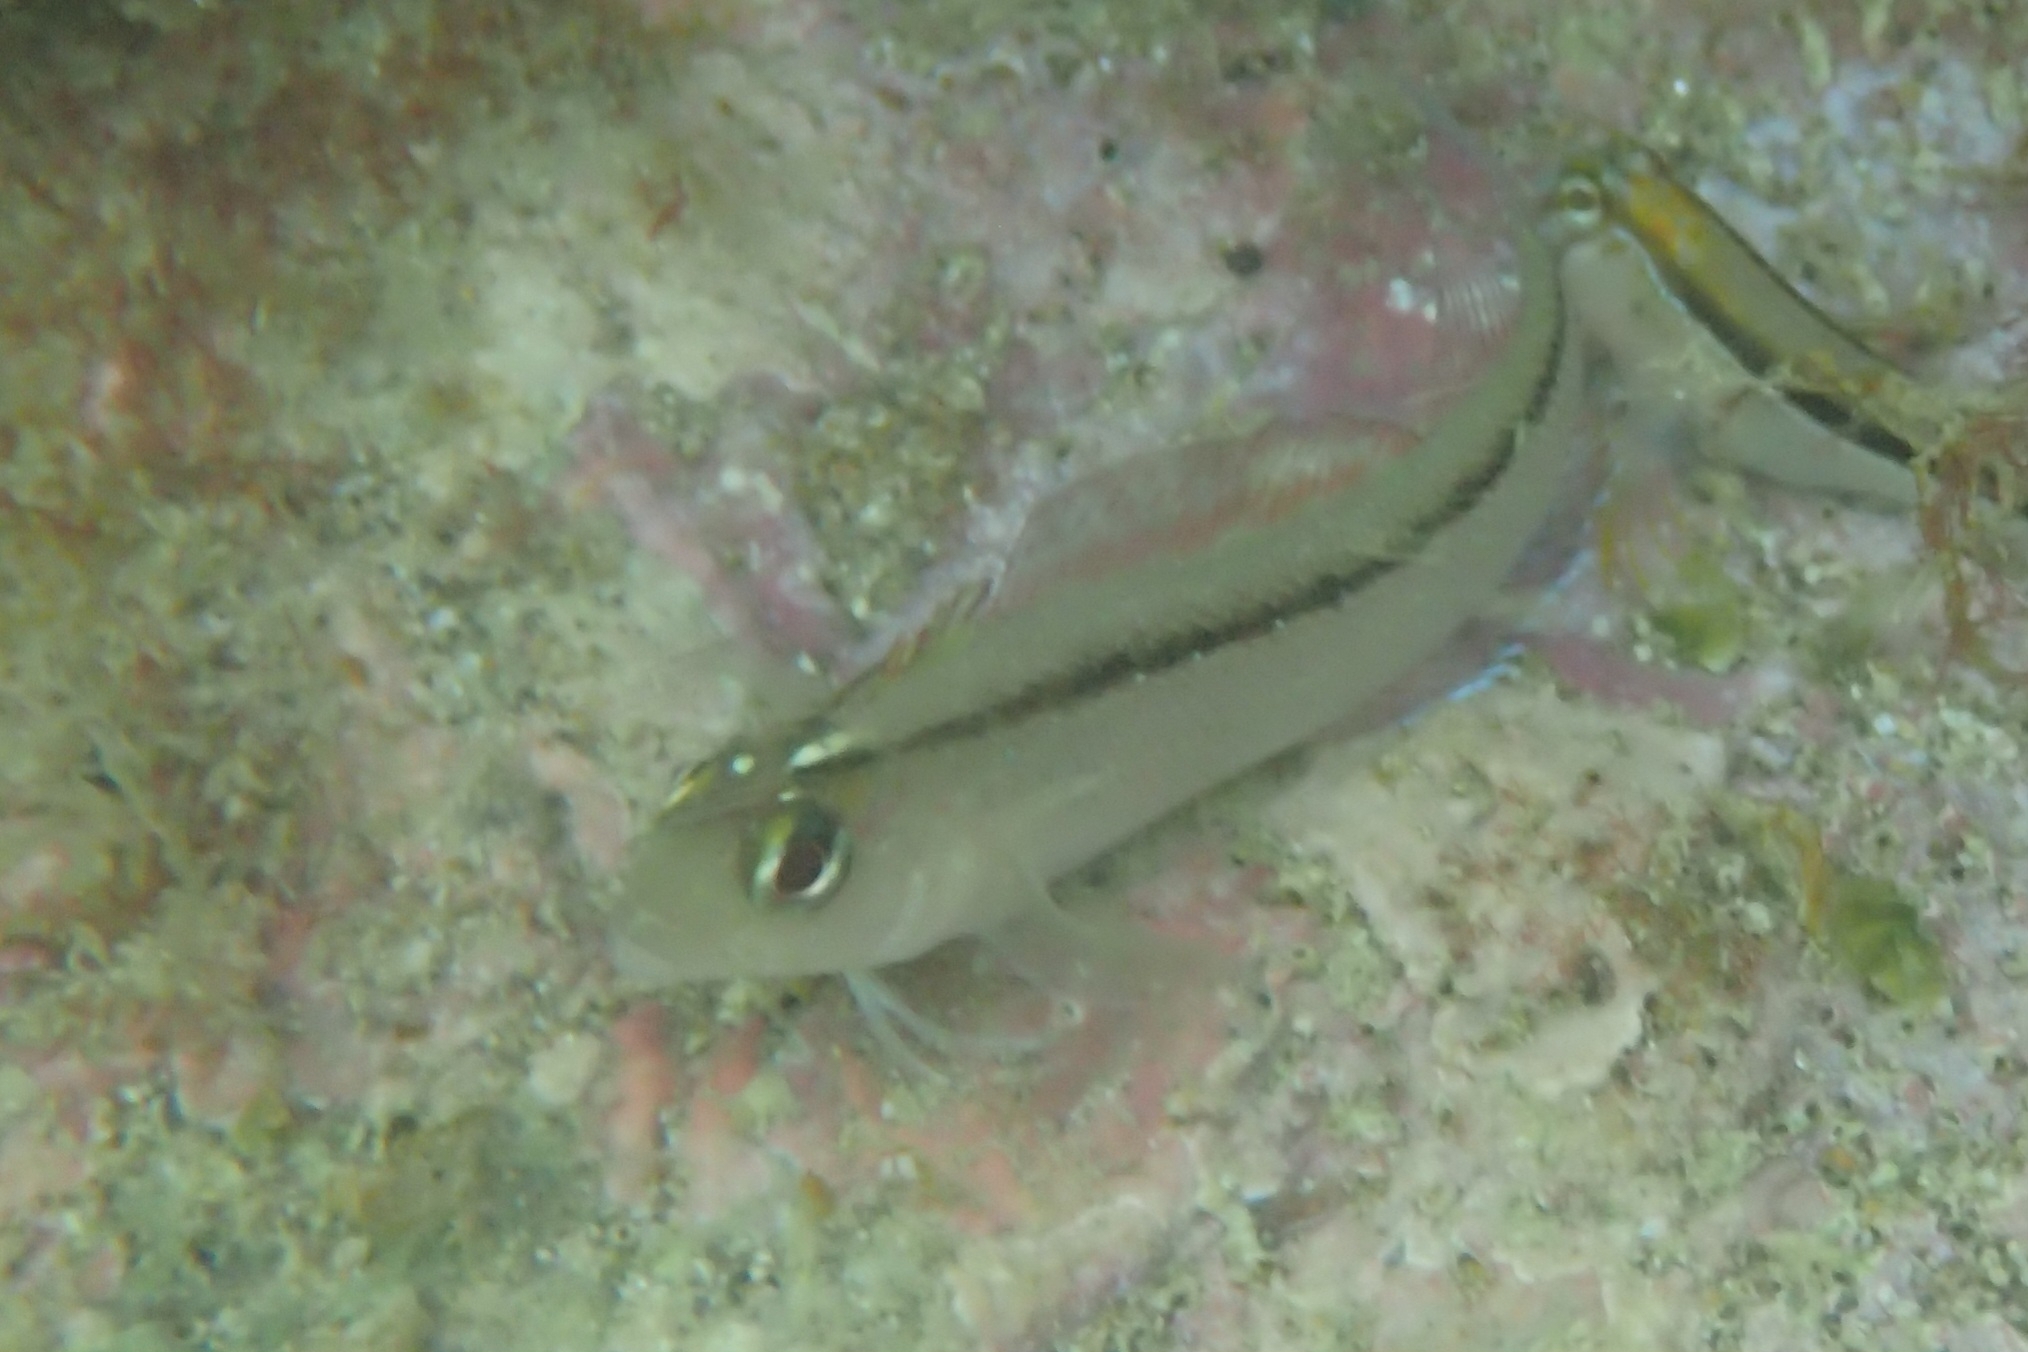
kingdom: Animalia
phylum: Chordata
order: Perciformes
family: Tripterygiidae
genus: Forsterygion
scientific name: Forsterygion lapillum
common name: Common triplefin
